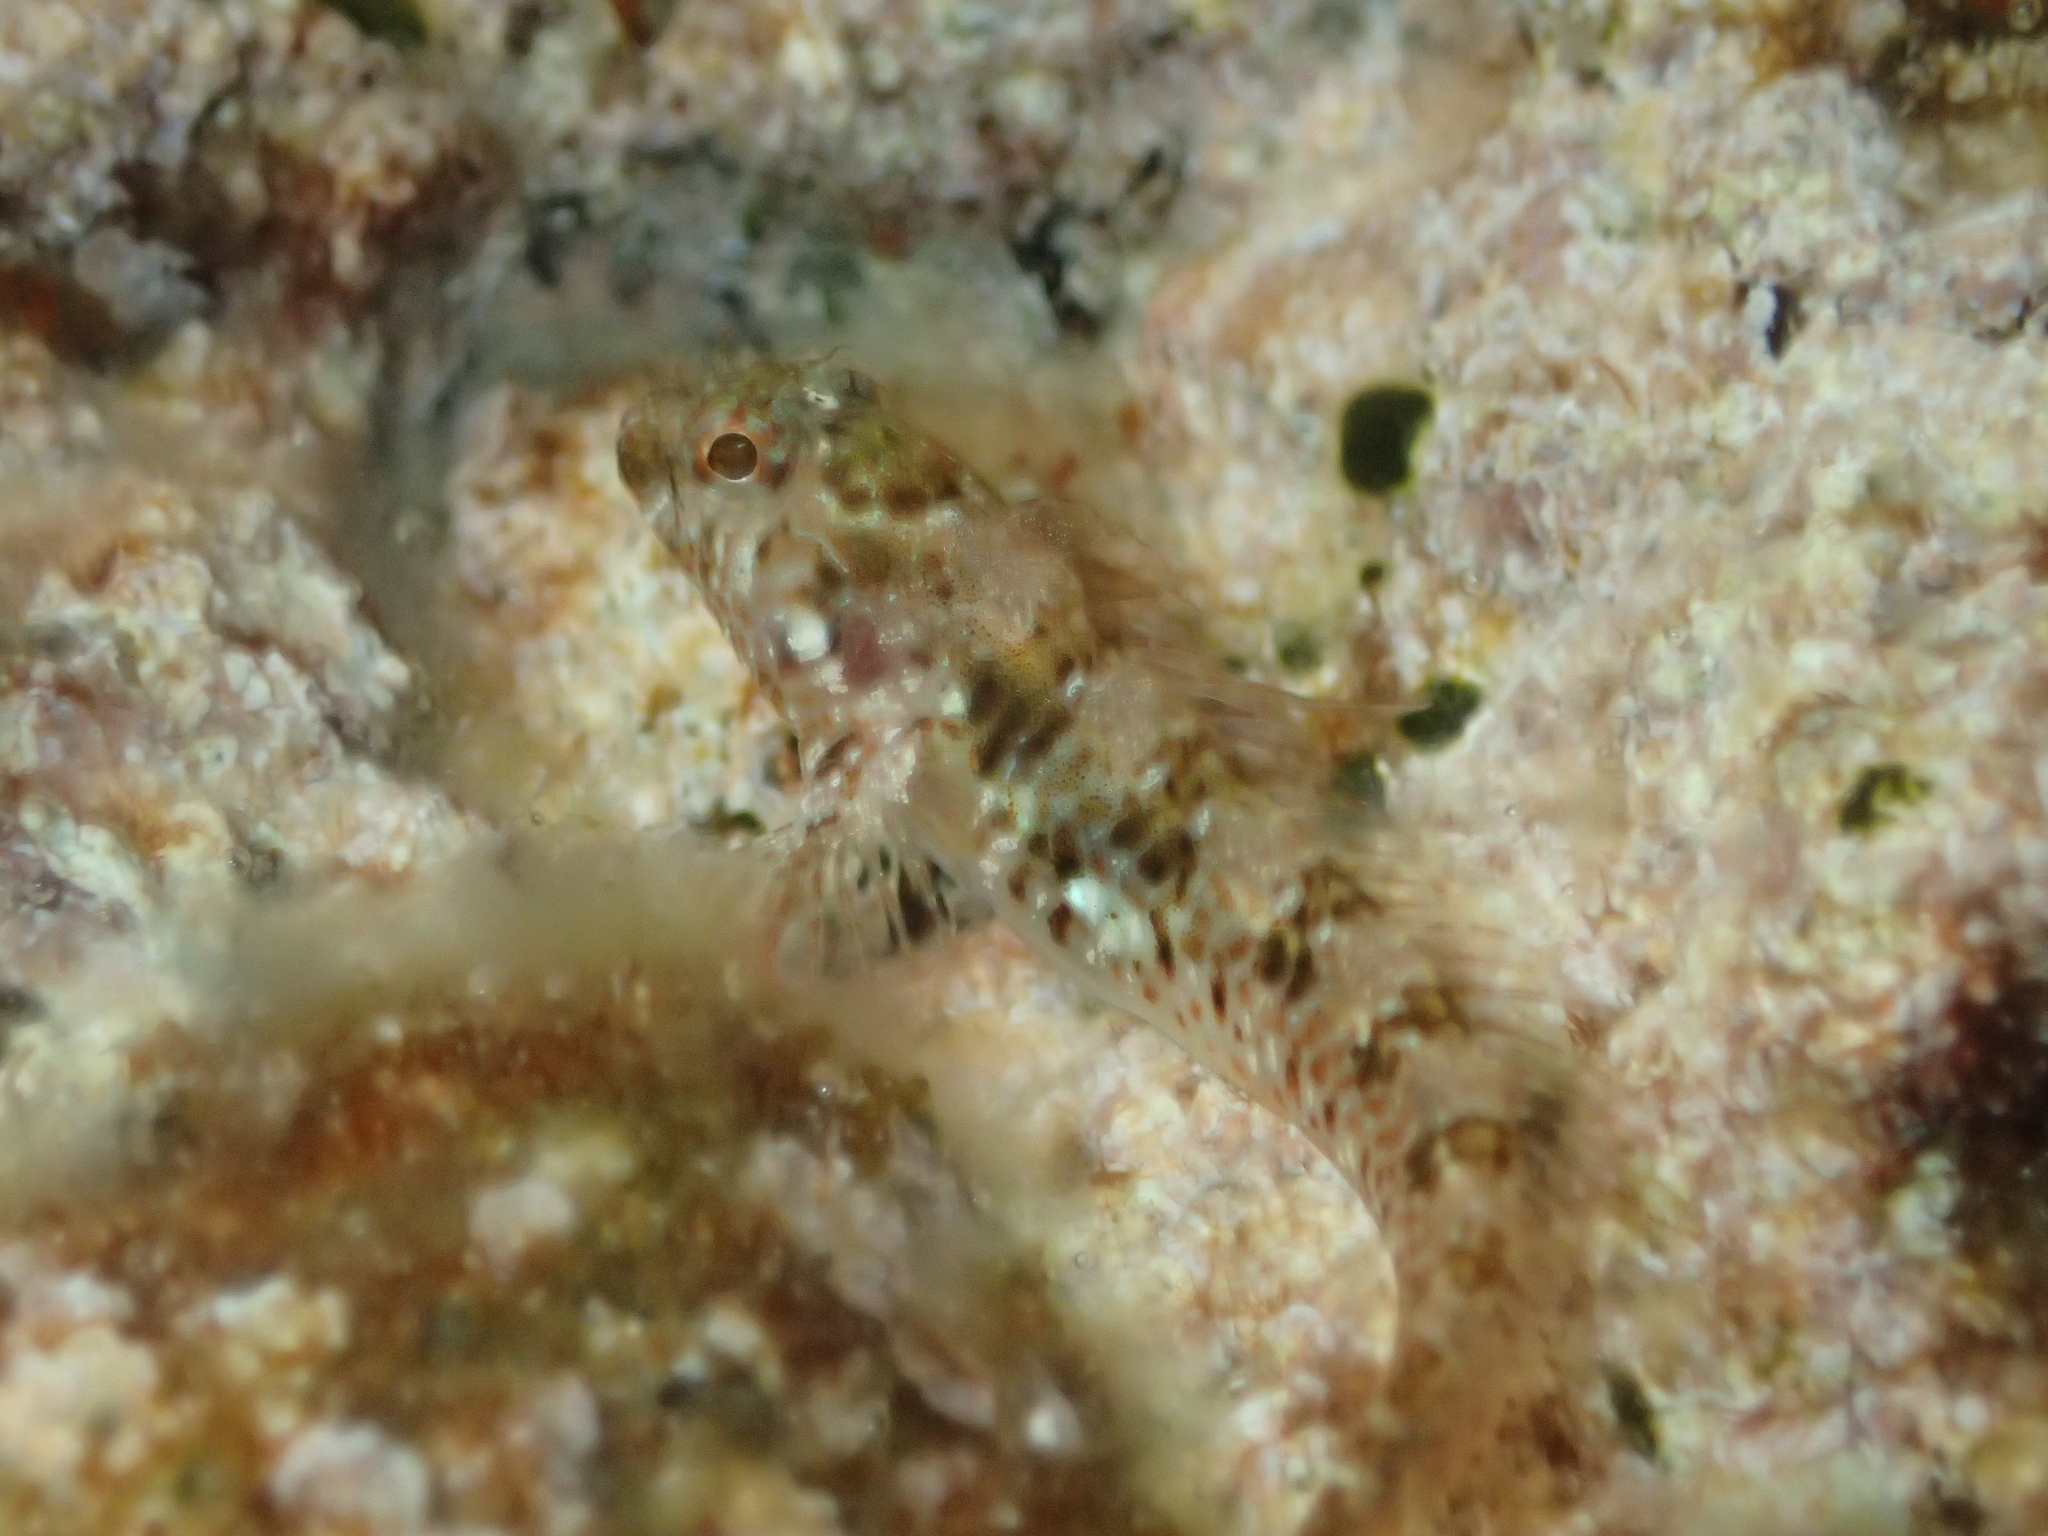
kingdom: Animalia
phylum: Chordata
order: Perciformes
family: Blenniidae
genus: Parablennius
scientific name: Parablennius incognitus
